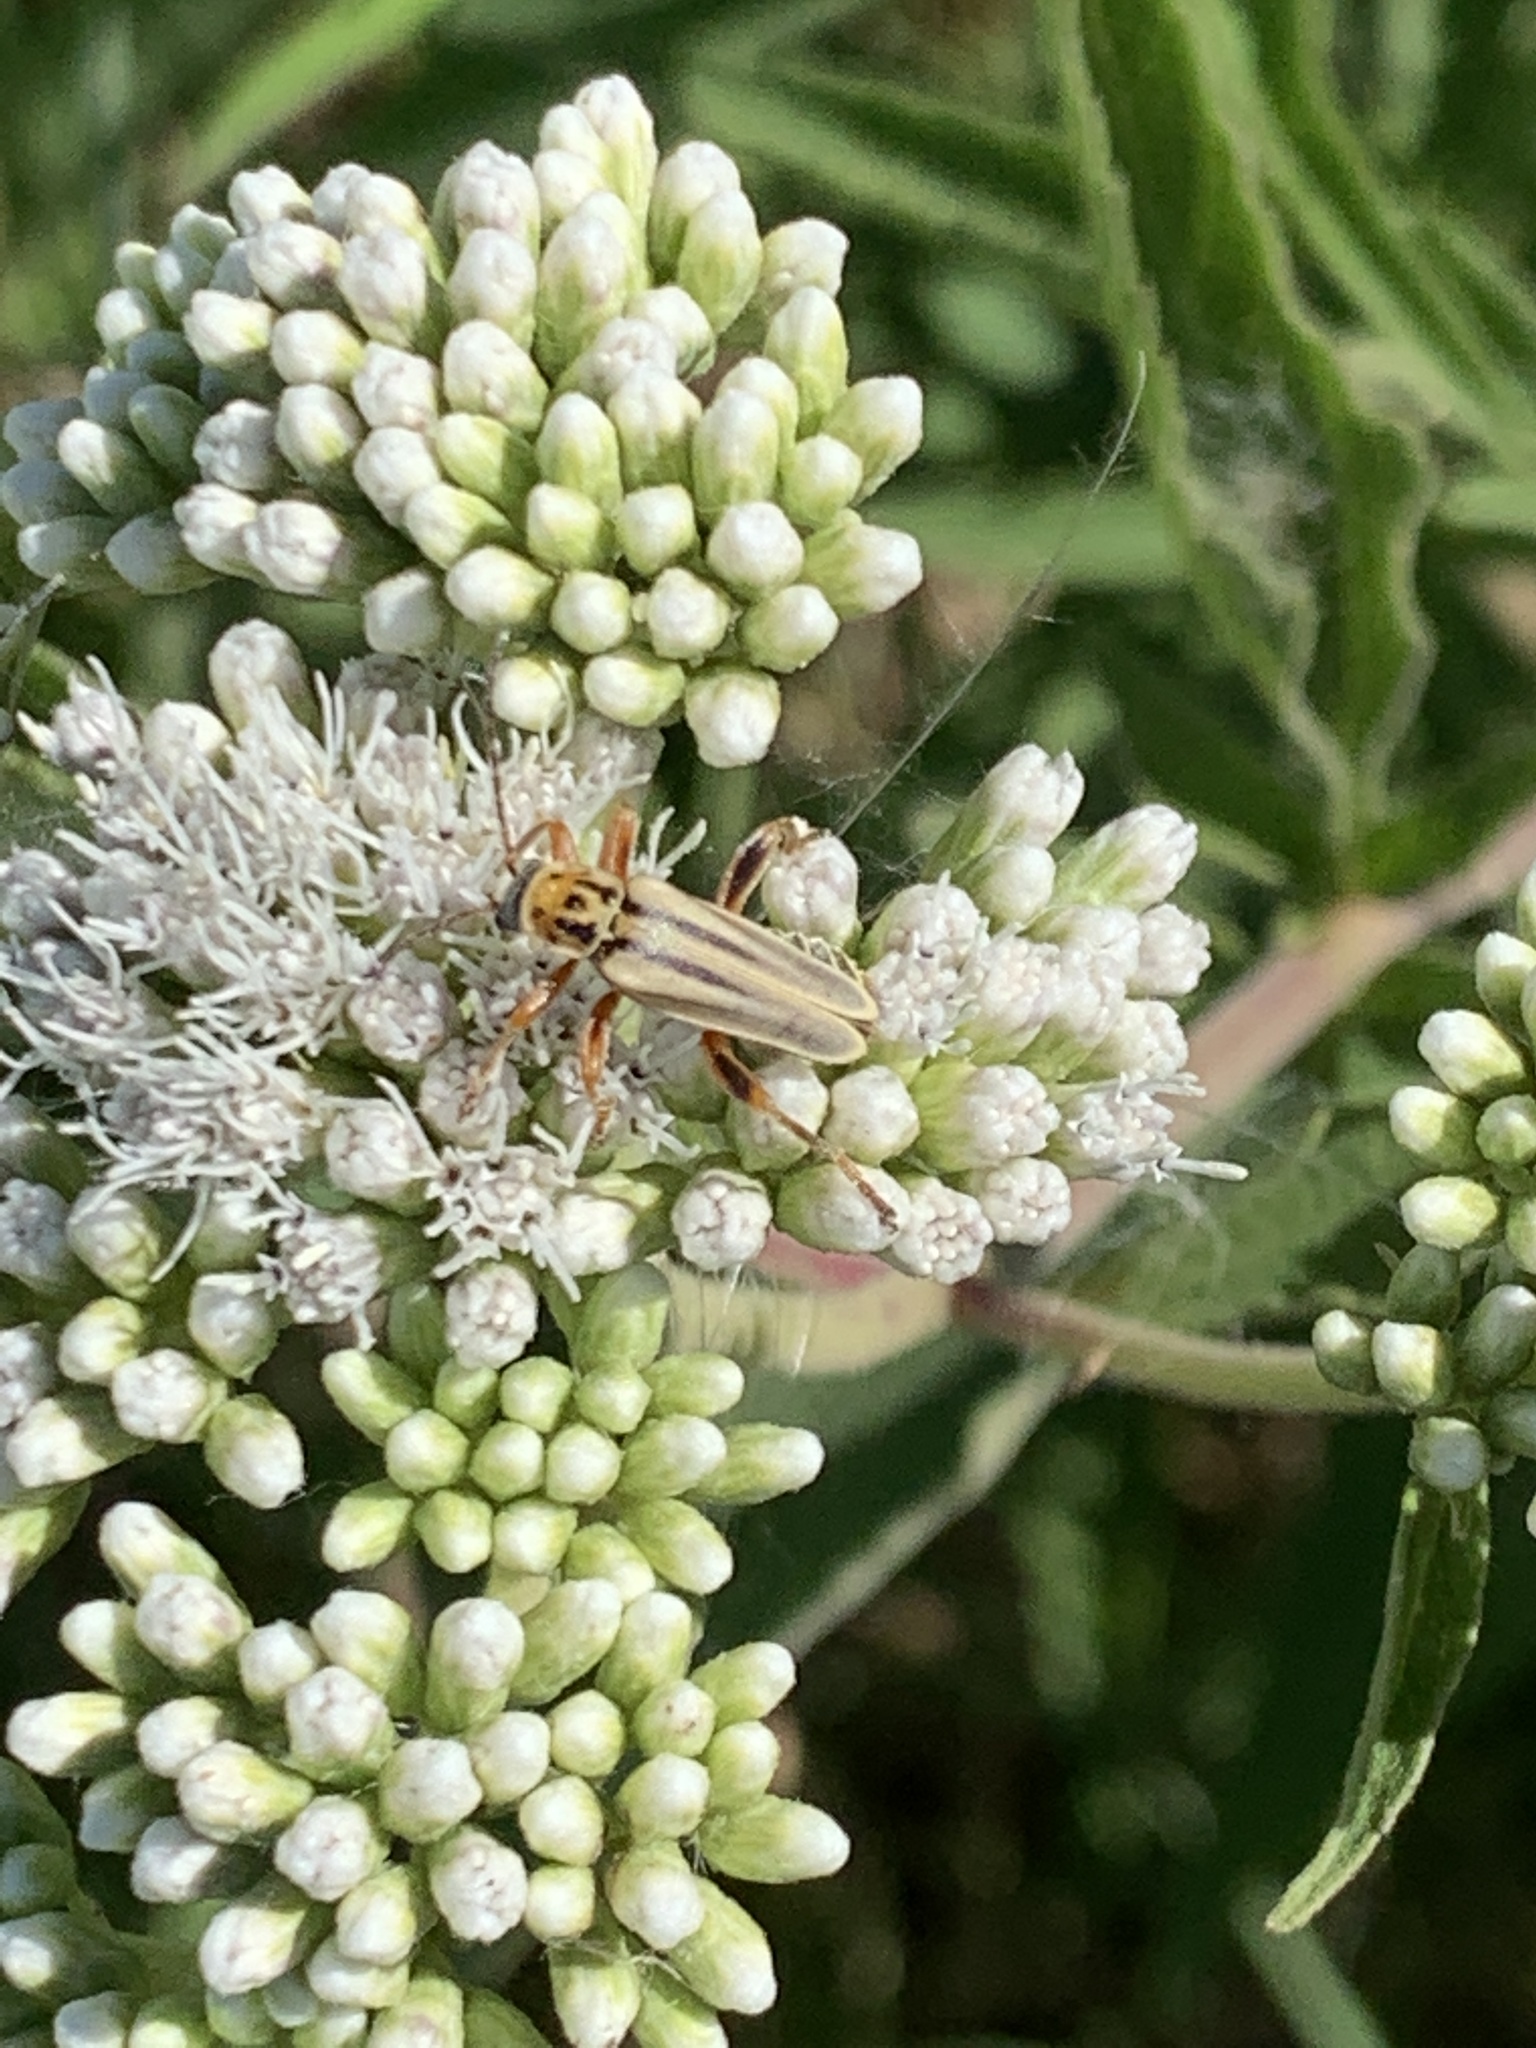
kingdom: Animalia
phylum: Arthropoda
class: Insecta
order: Coleoptera
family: Cantharidae
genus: Chauliognathus
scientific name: Chauliognathus
